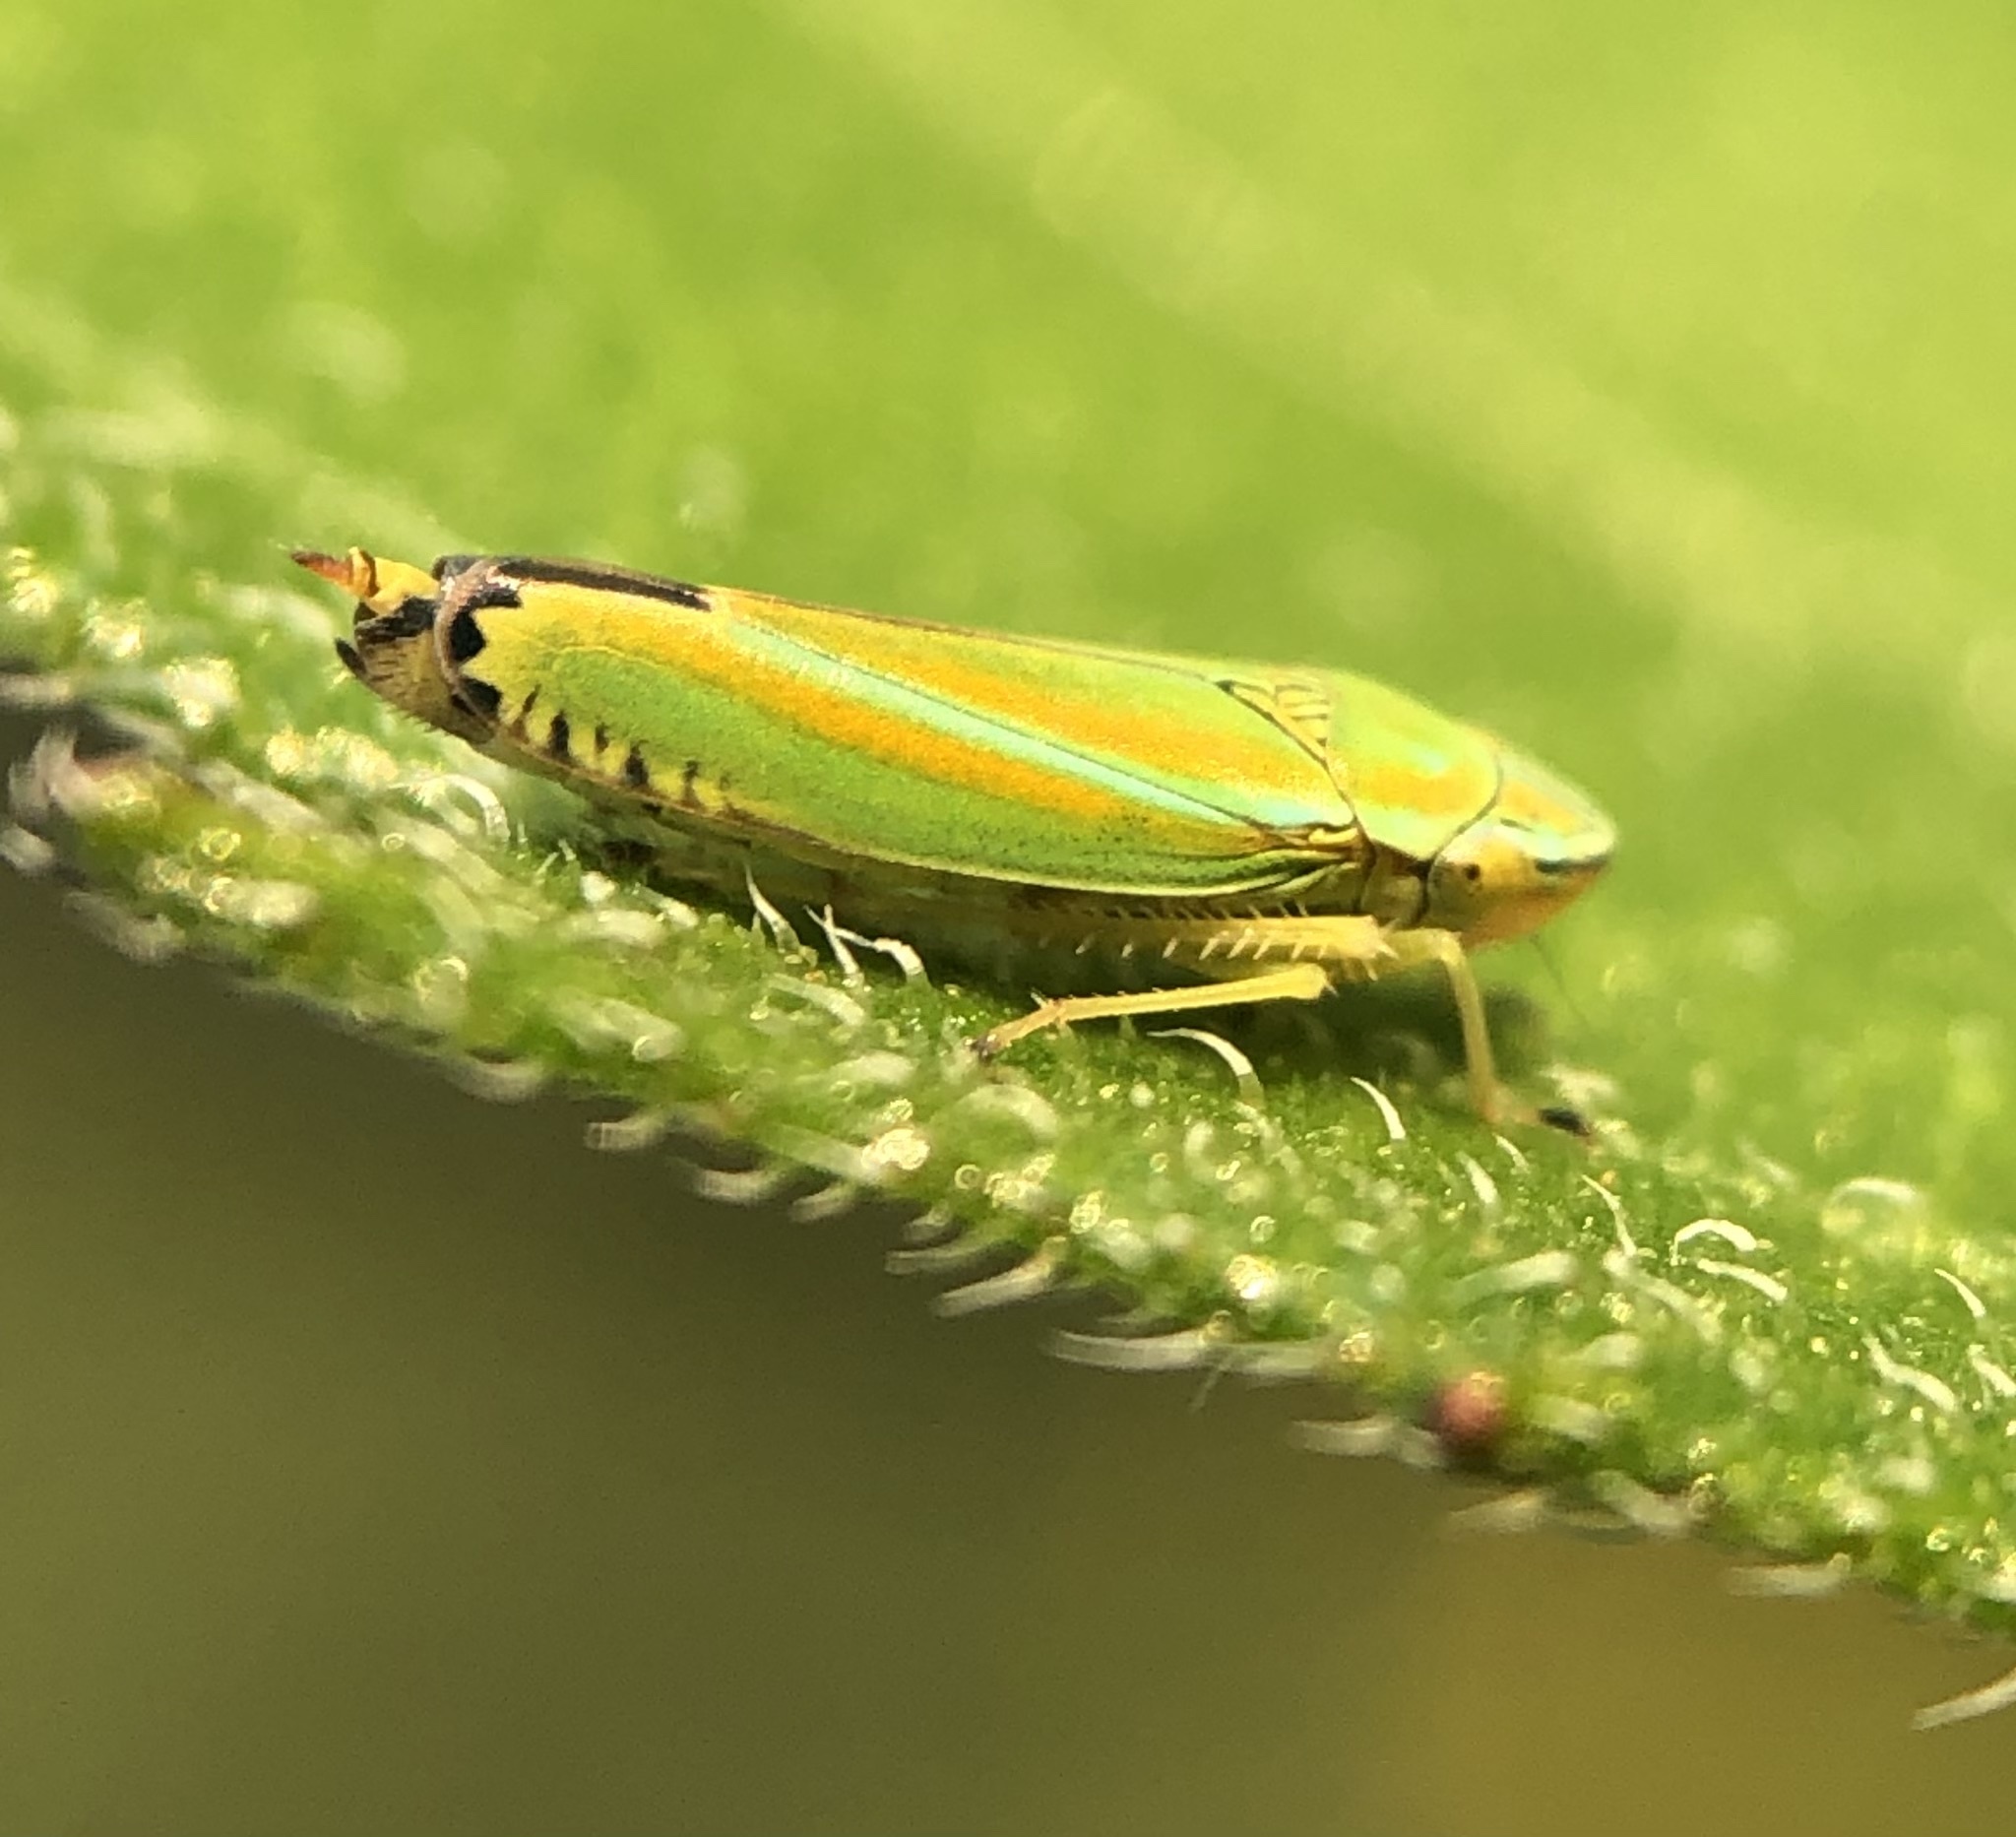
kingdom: Animalia
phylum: Arthropoda
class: Insecta
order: Hemiptera
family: Cicadellidae
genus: Graphocephala
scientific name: Graphocephala versuta
